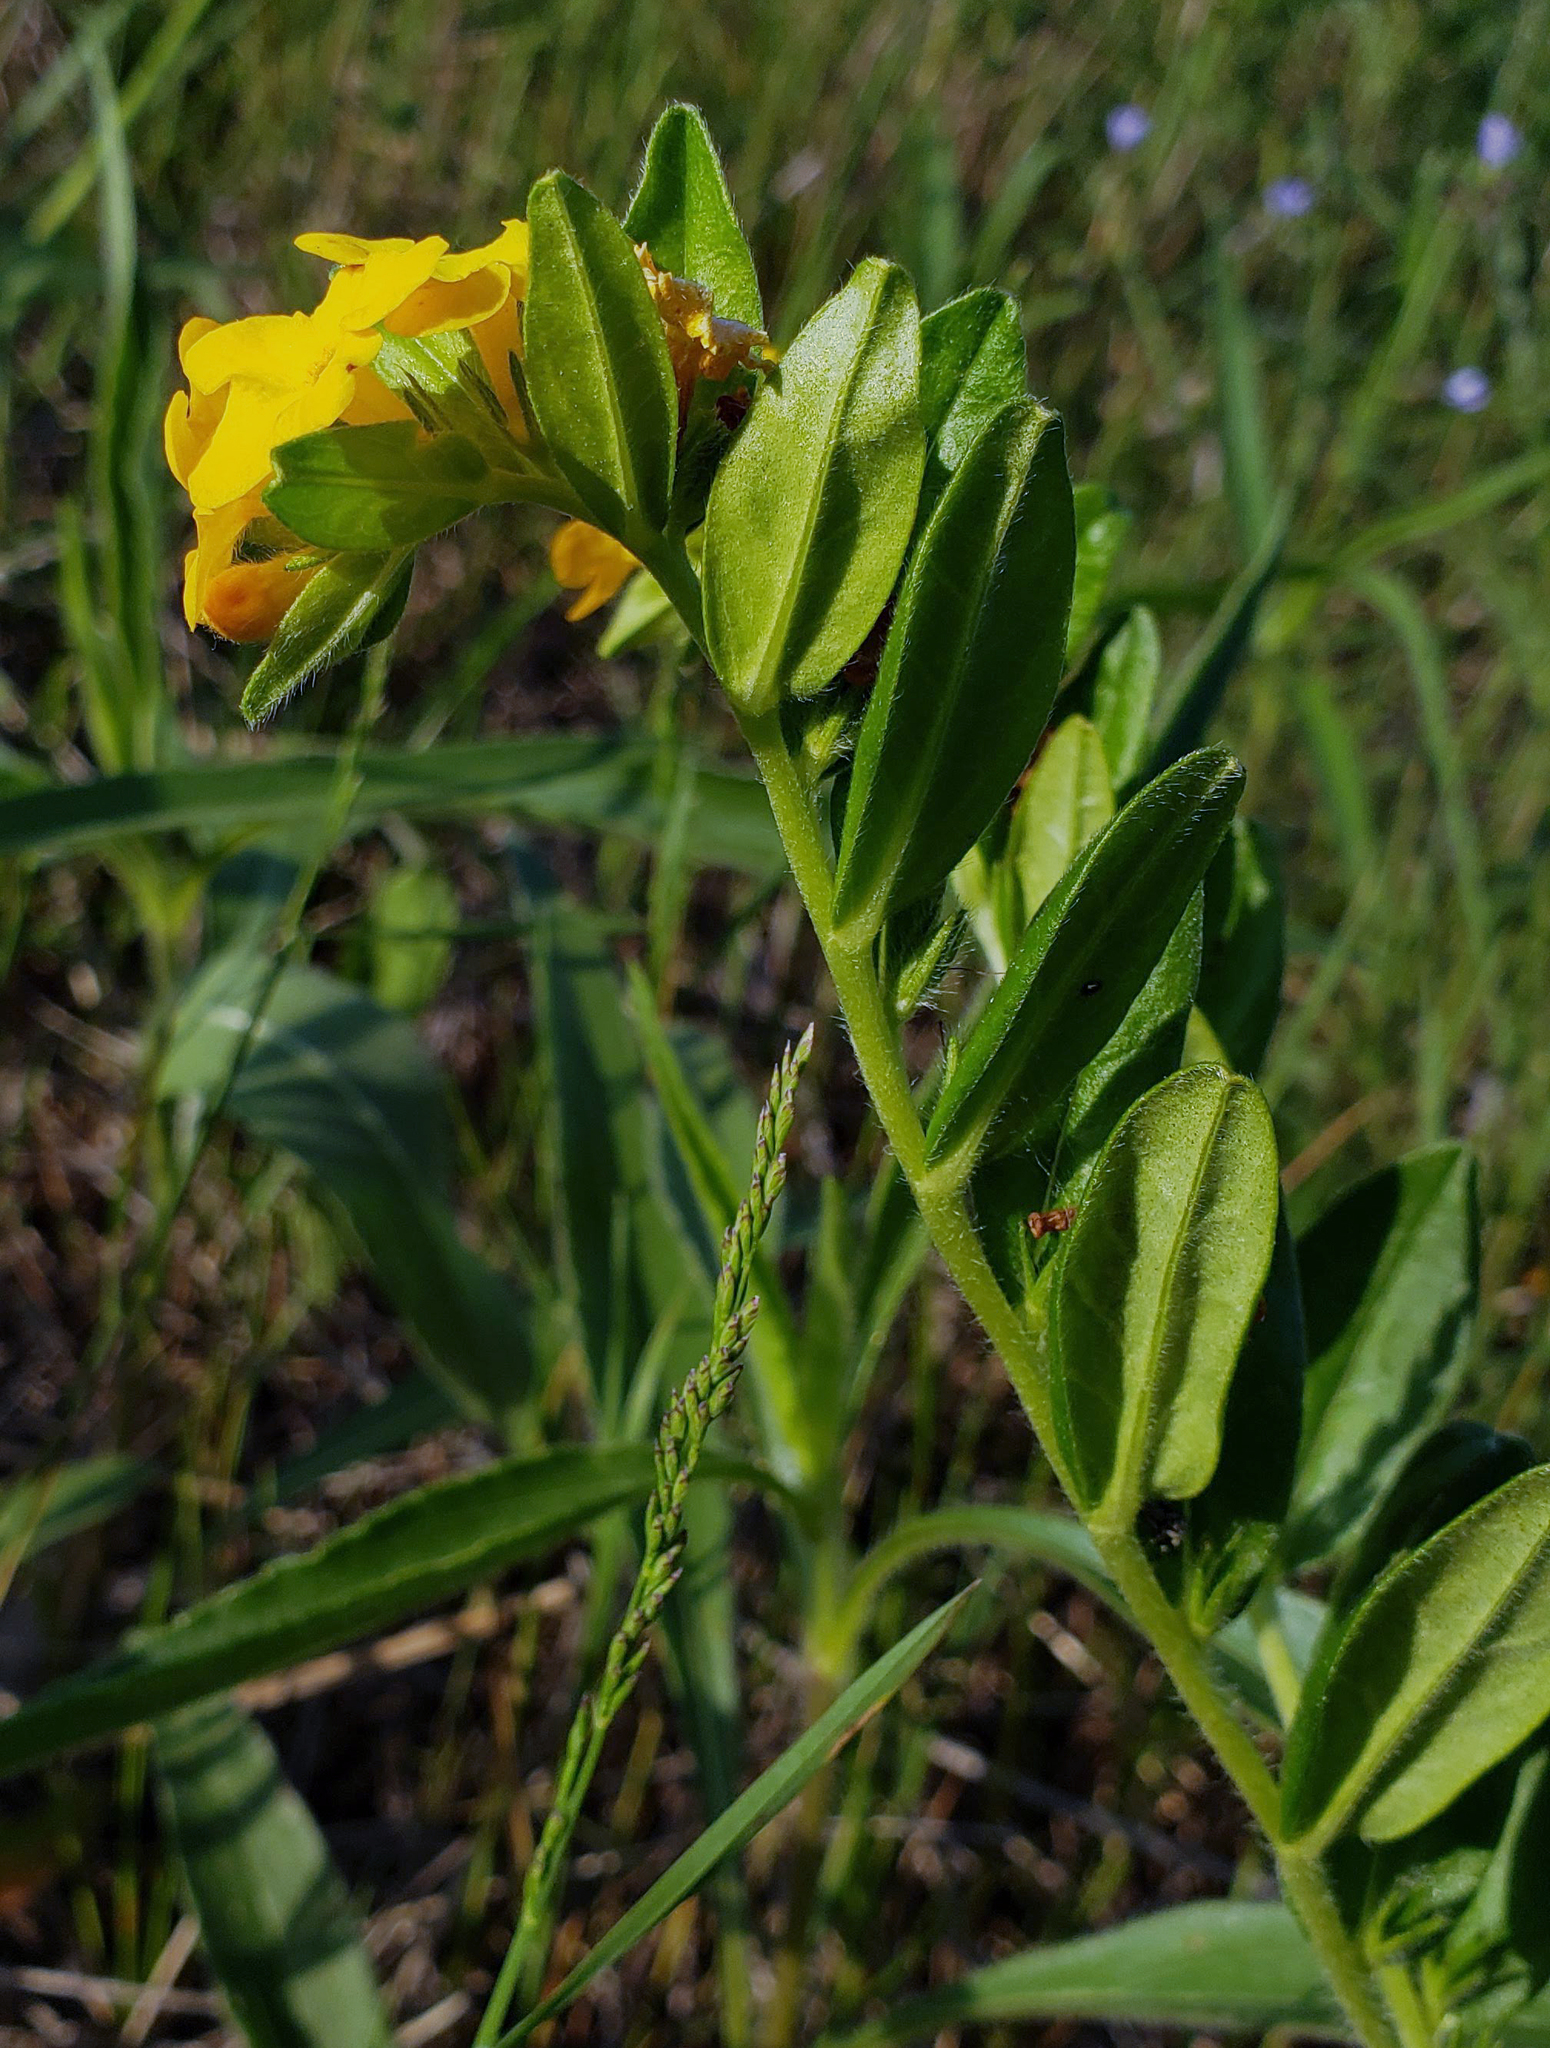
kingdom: Plantae
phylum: Tracheophyta
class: Magnoliopsida
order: Boraginales
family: Boraginaceae
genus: Lithospermum
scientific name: Lithospermum canescens
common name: Hoary puccoon
